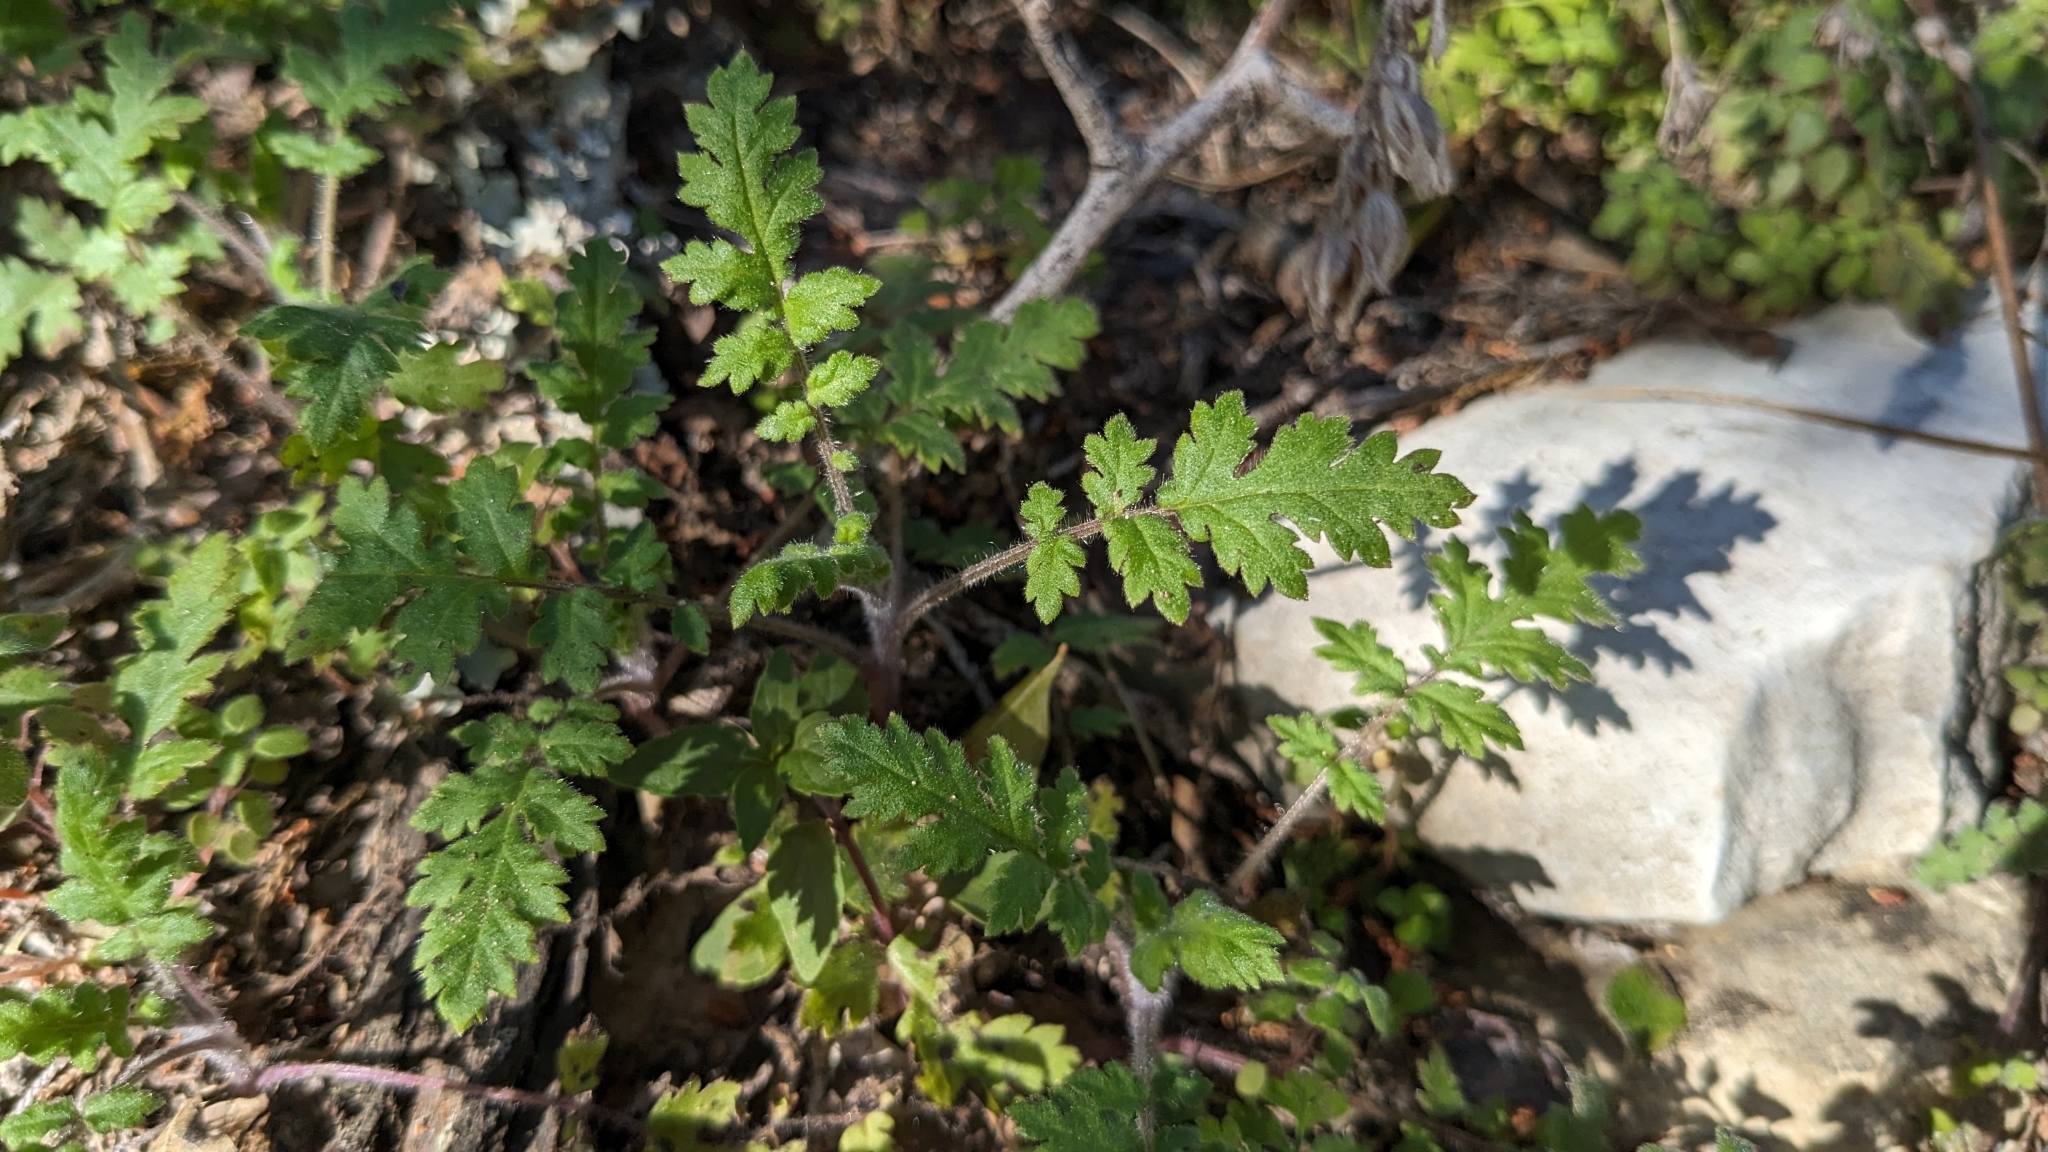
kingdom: Plantae
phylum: Tracheophyta
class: Magnoliopsida
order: Boraginales
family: Hydrophyllaceae
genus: Phacelia
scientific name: Phacelia congesta
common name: Blue curls
